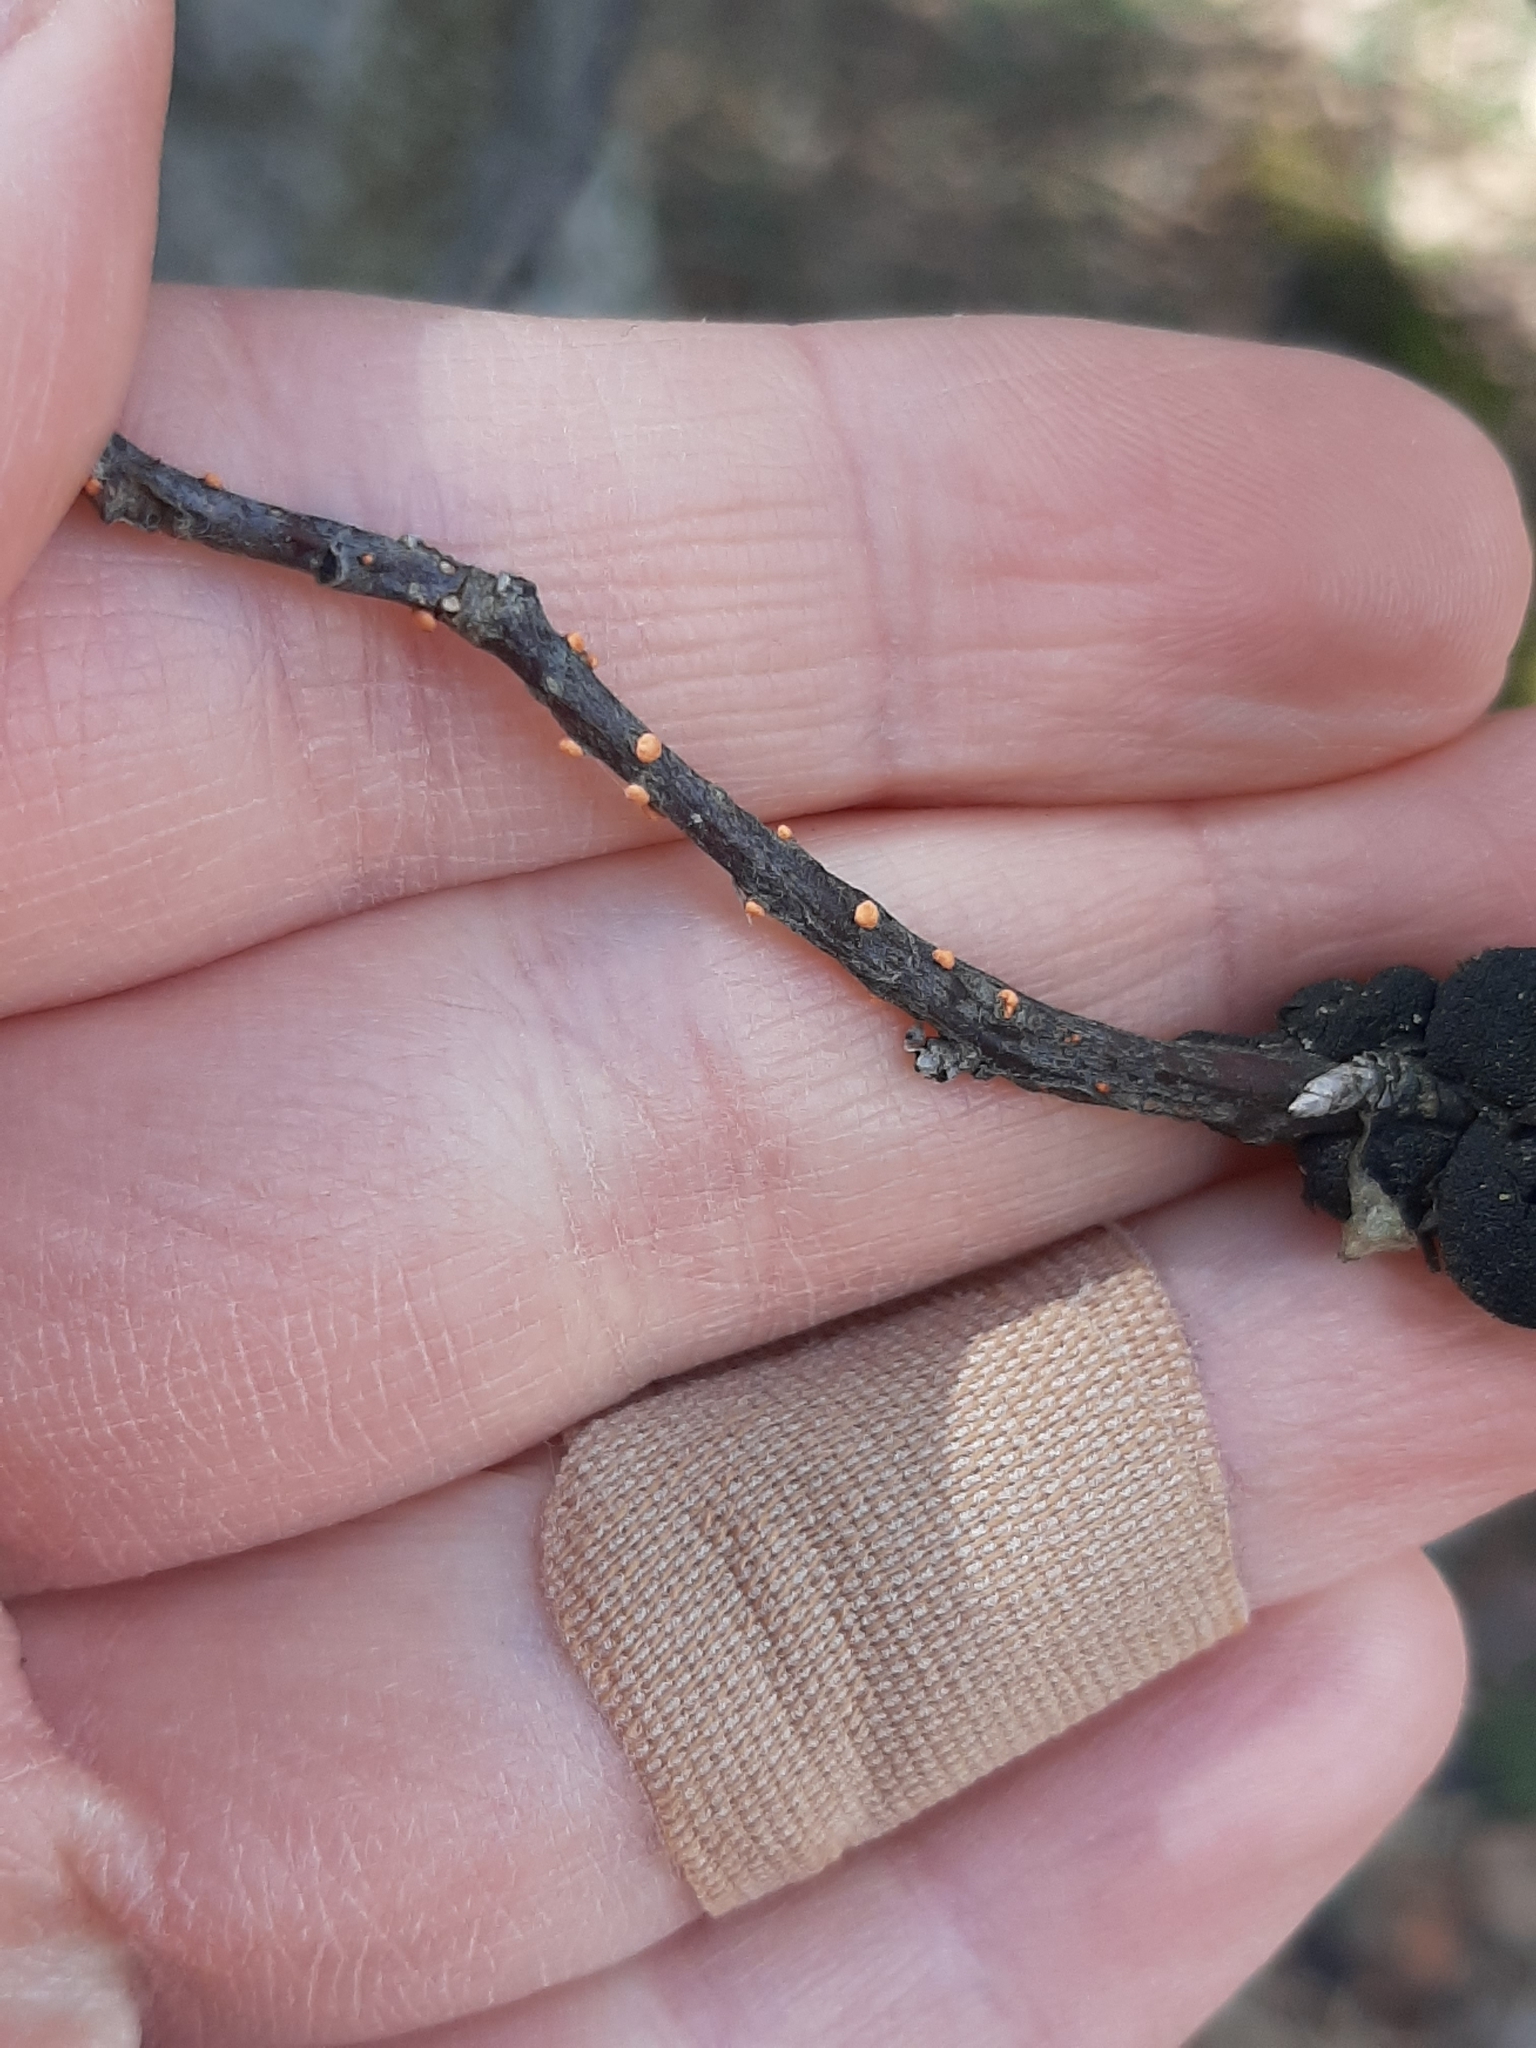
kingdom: Fungi
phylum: Ascomycota
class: Sordariomycetes
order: Hypocreales
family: Nectriaceae
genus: Nectria
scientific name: Nectria cinnabarina
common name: Coral spot
